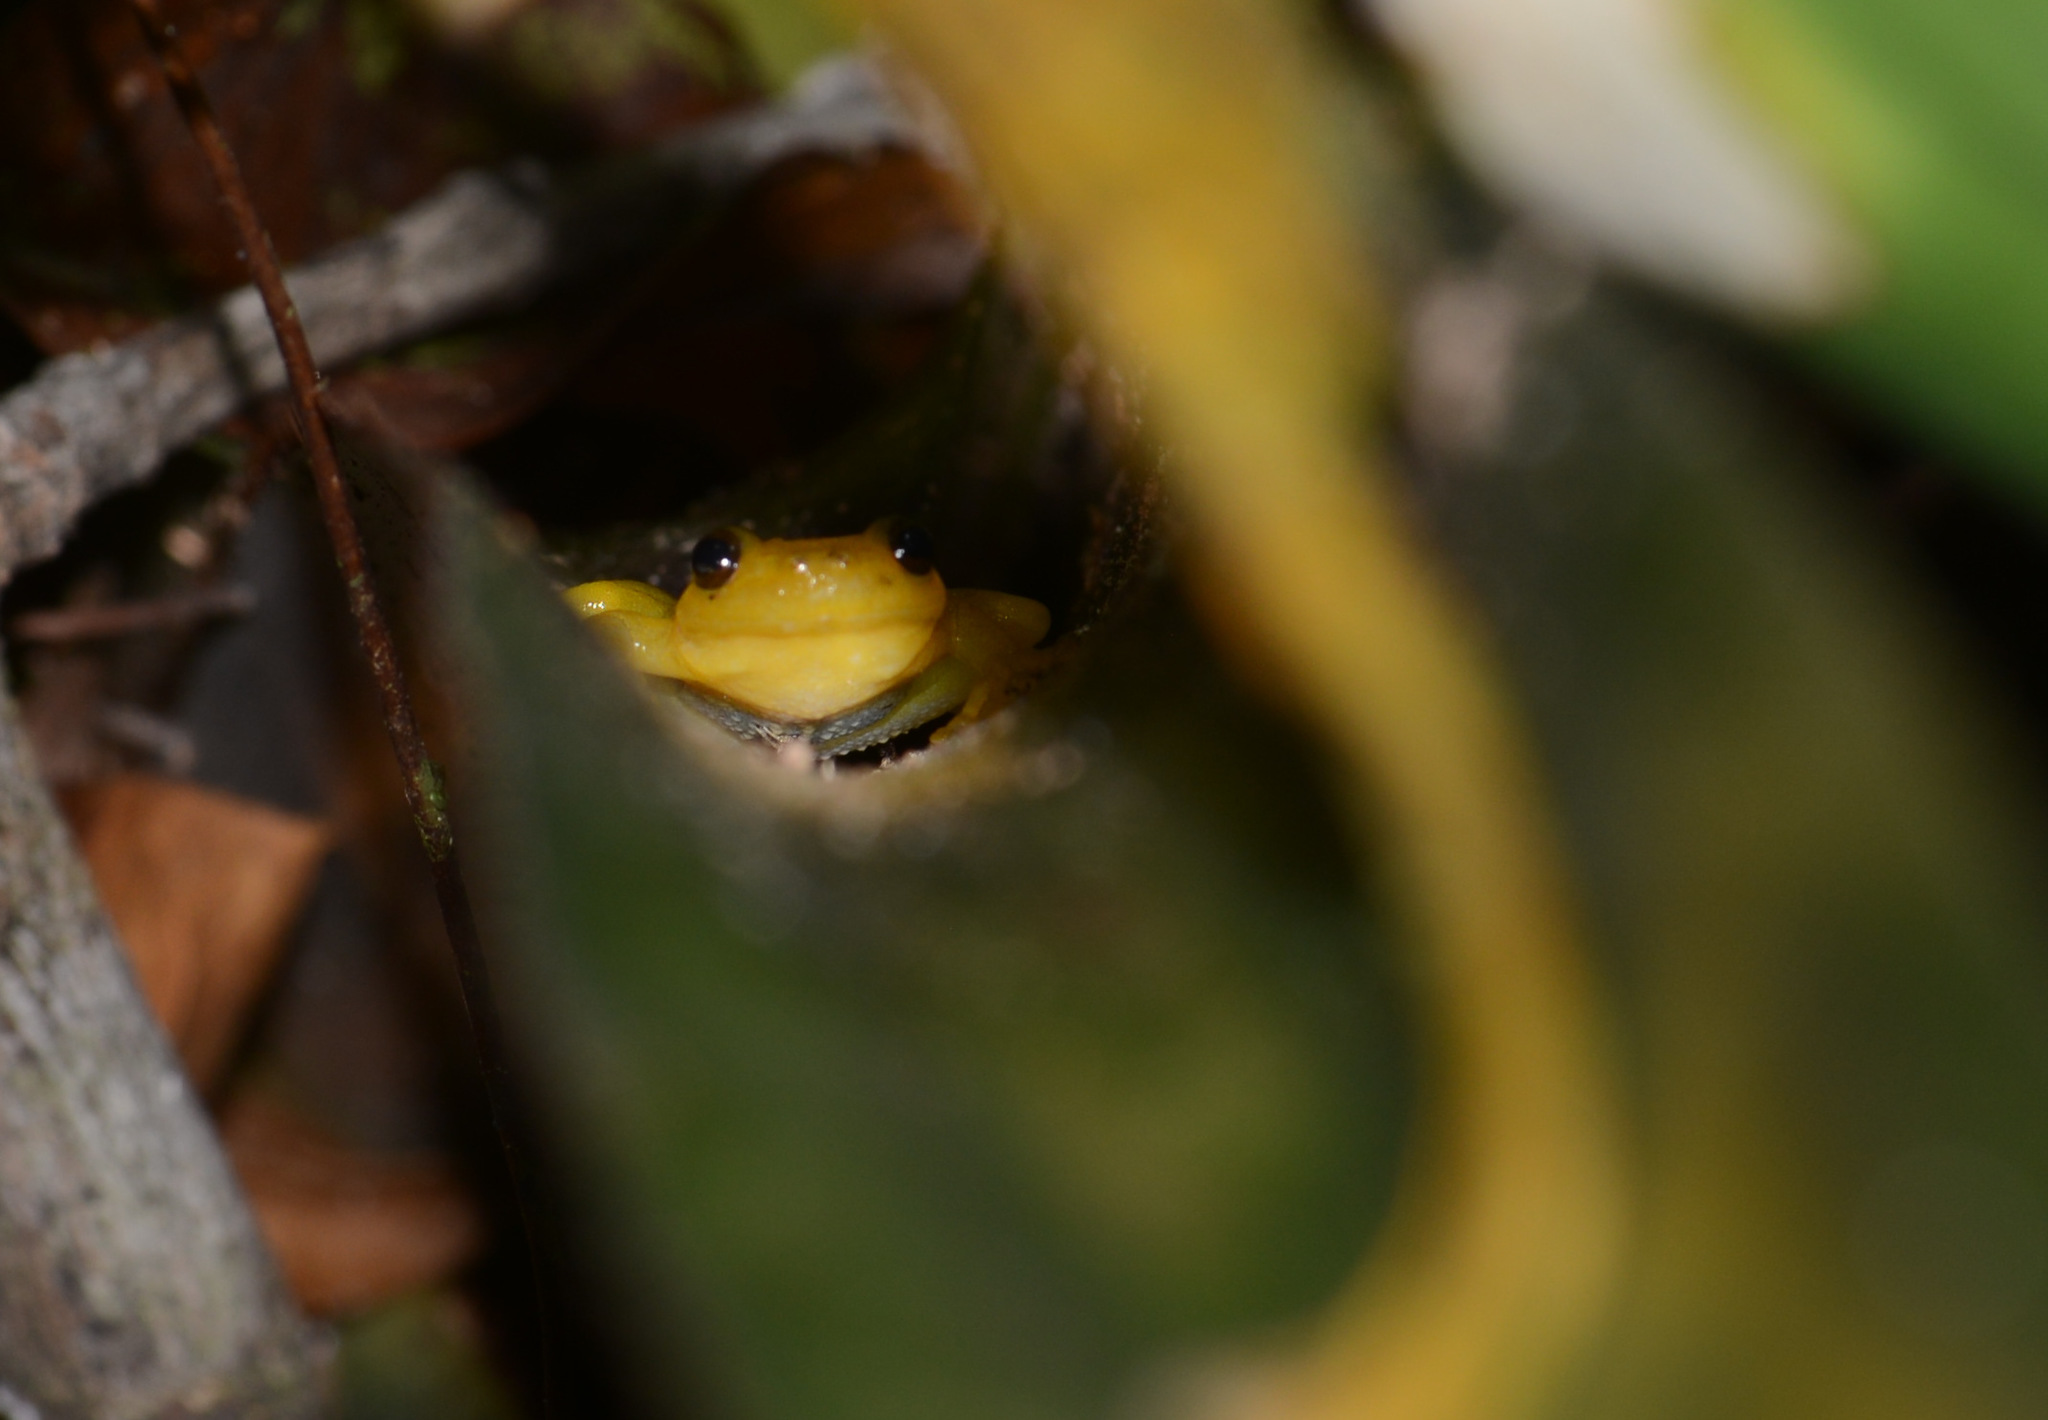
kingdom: Animalia
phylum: Chordata
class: Amphibia
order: Anura
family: Hylidae
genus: Phyllodytes
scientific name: Phyllodytes edelmoi
